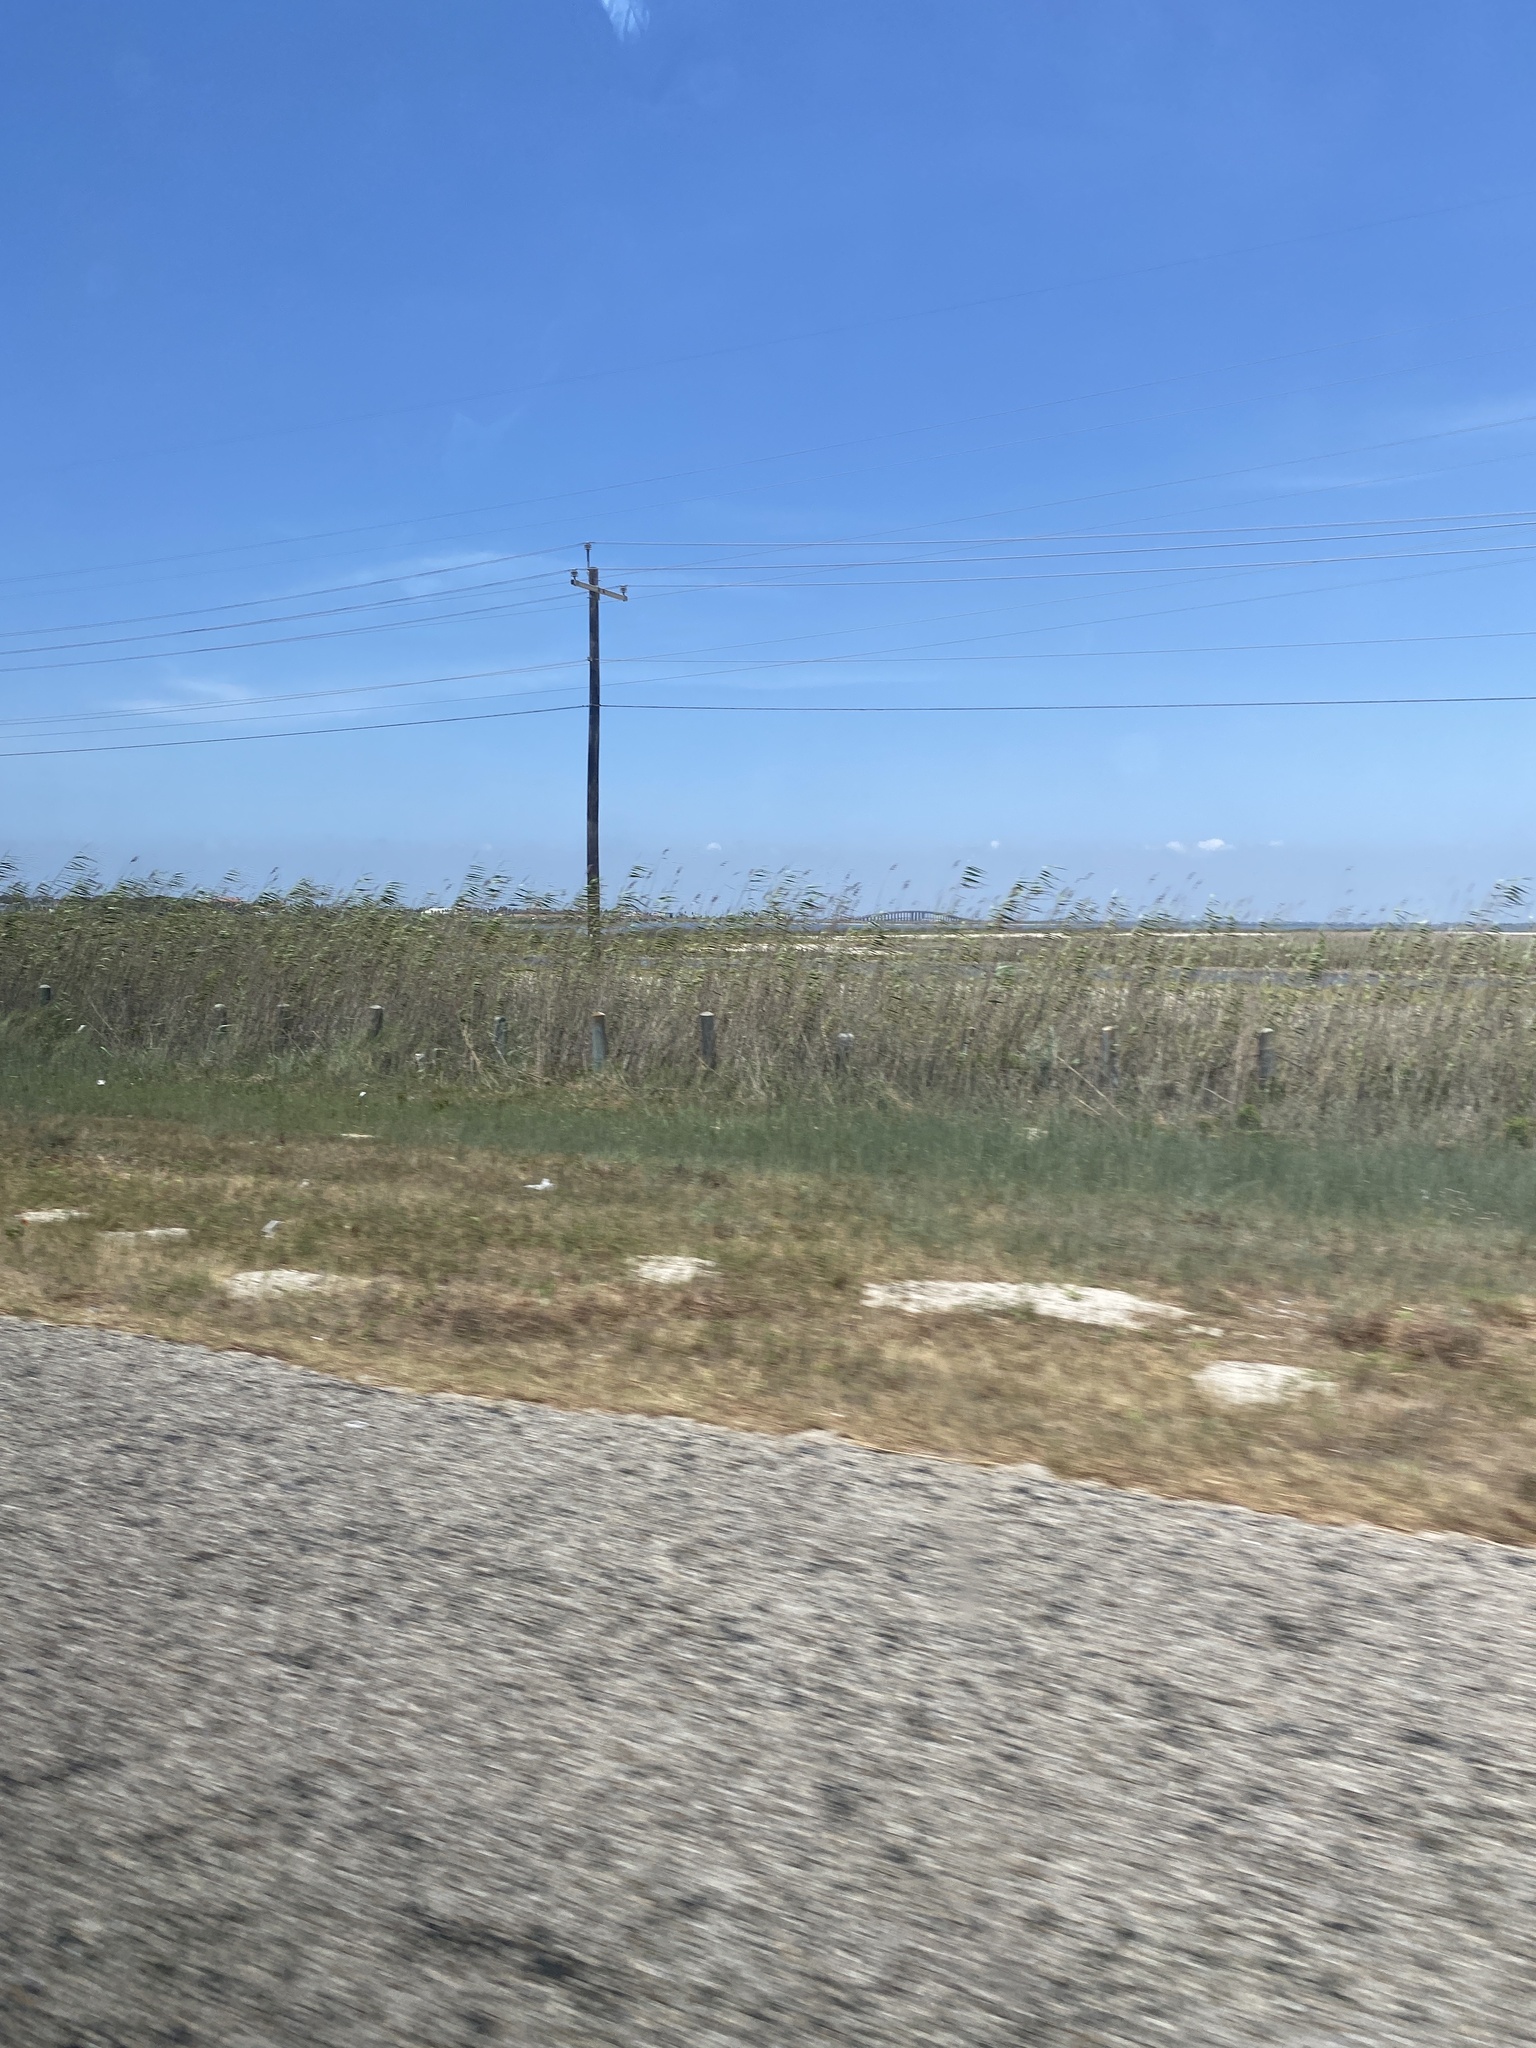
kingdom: Plantae
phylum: Tracheophyta
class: Liliopsida
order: Poales
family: Poaceae
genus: Phragmites
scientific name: Phragmites australis
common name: Common reed
